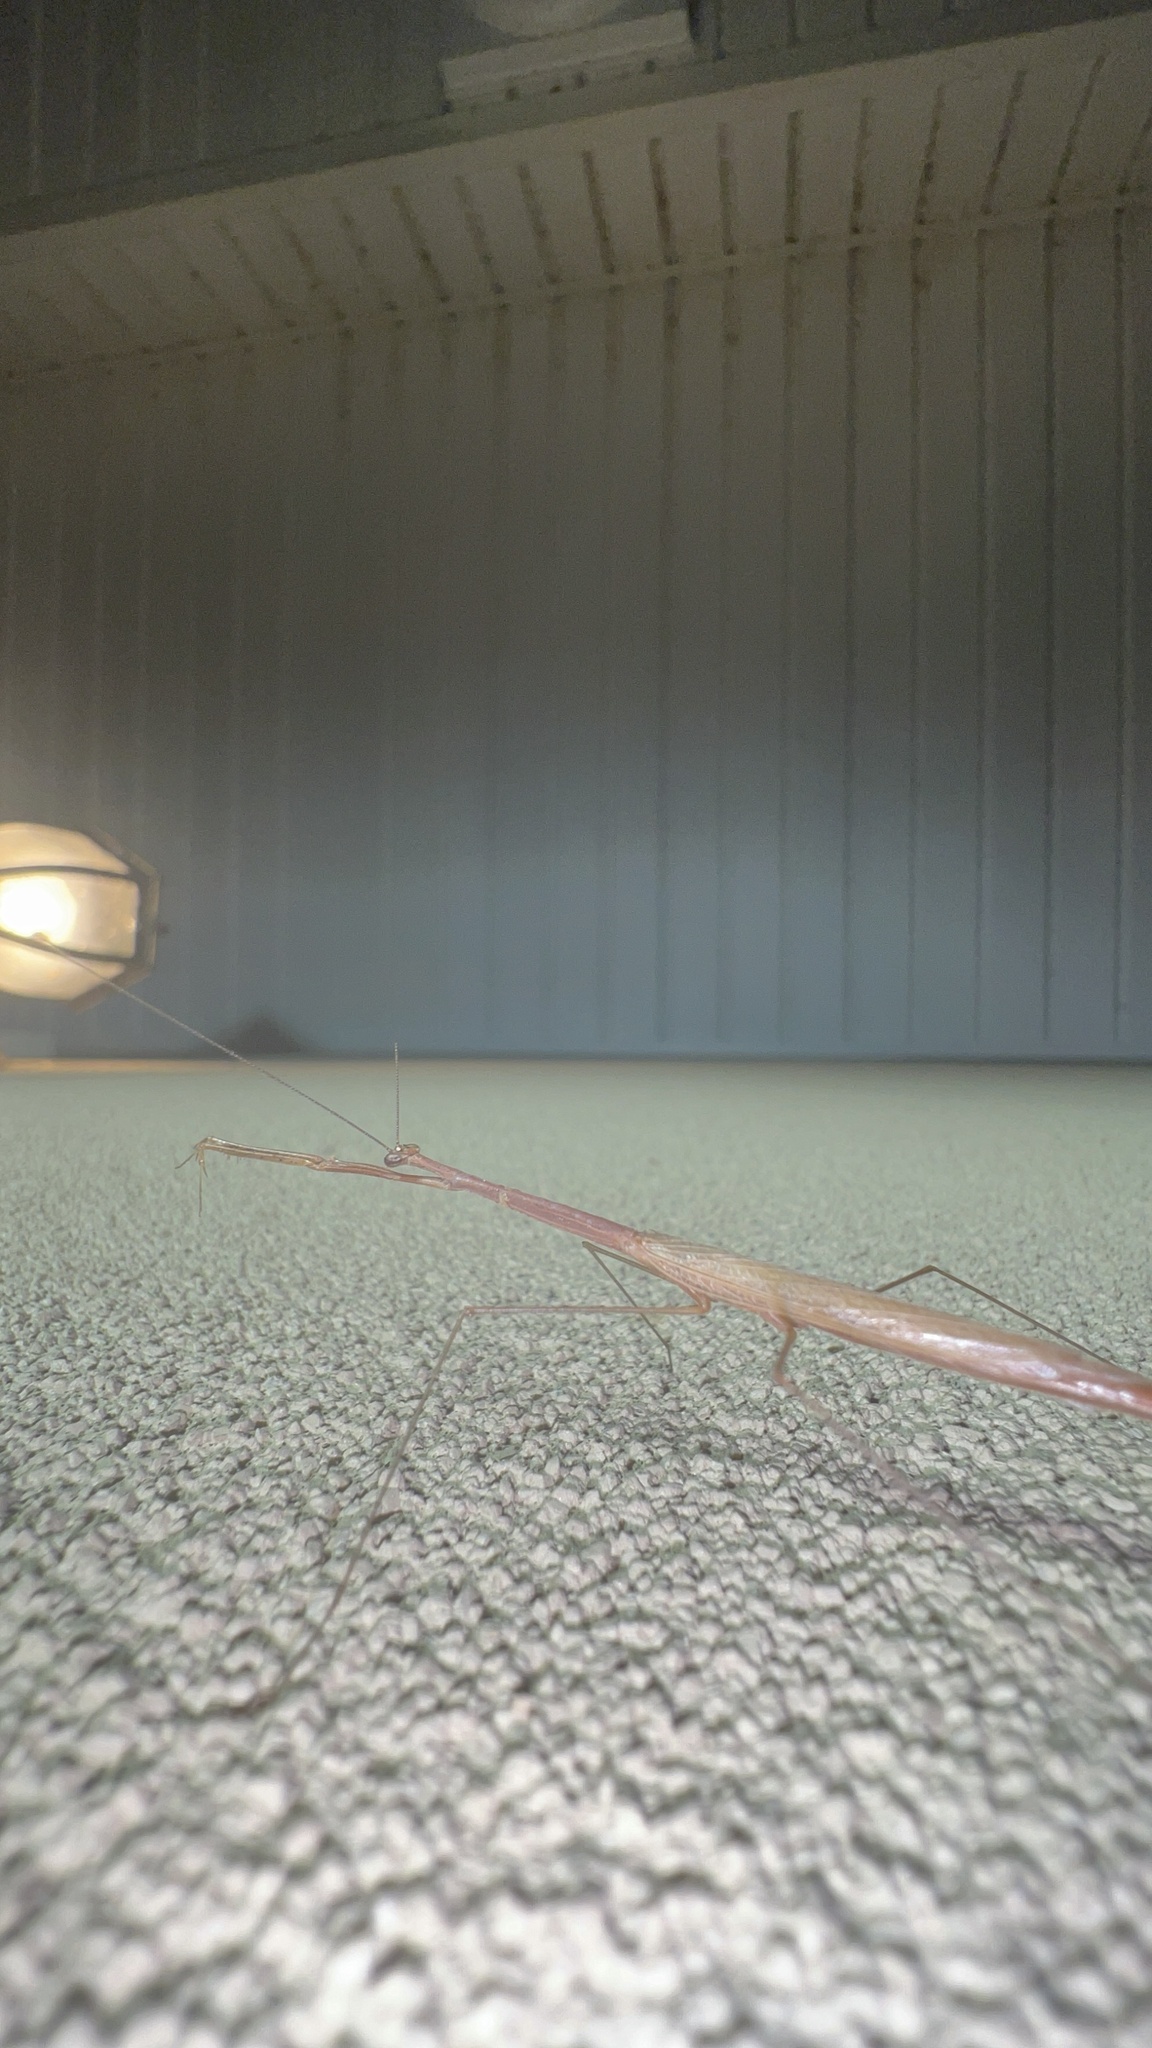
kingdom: Animalia
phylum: Arthropoda
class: Insecta
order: Mantodea
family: Thespidae
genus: Thesprotia
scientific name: Thesprotia graminis
